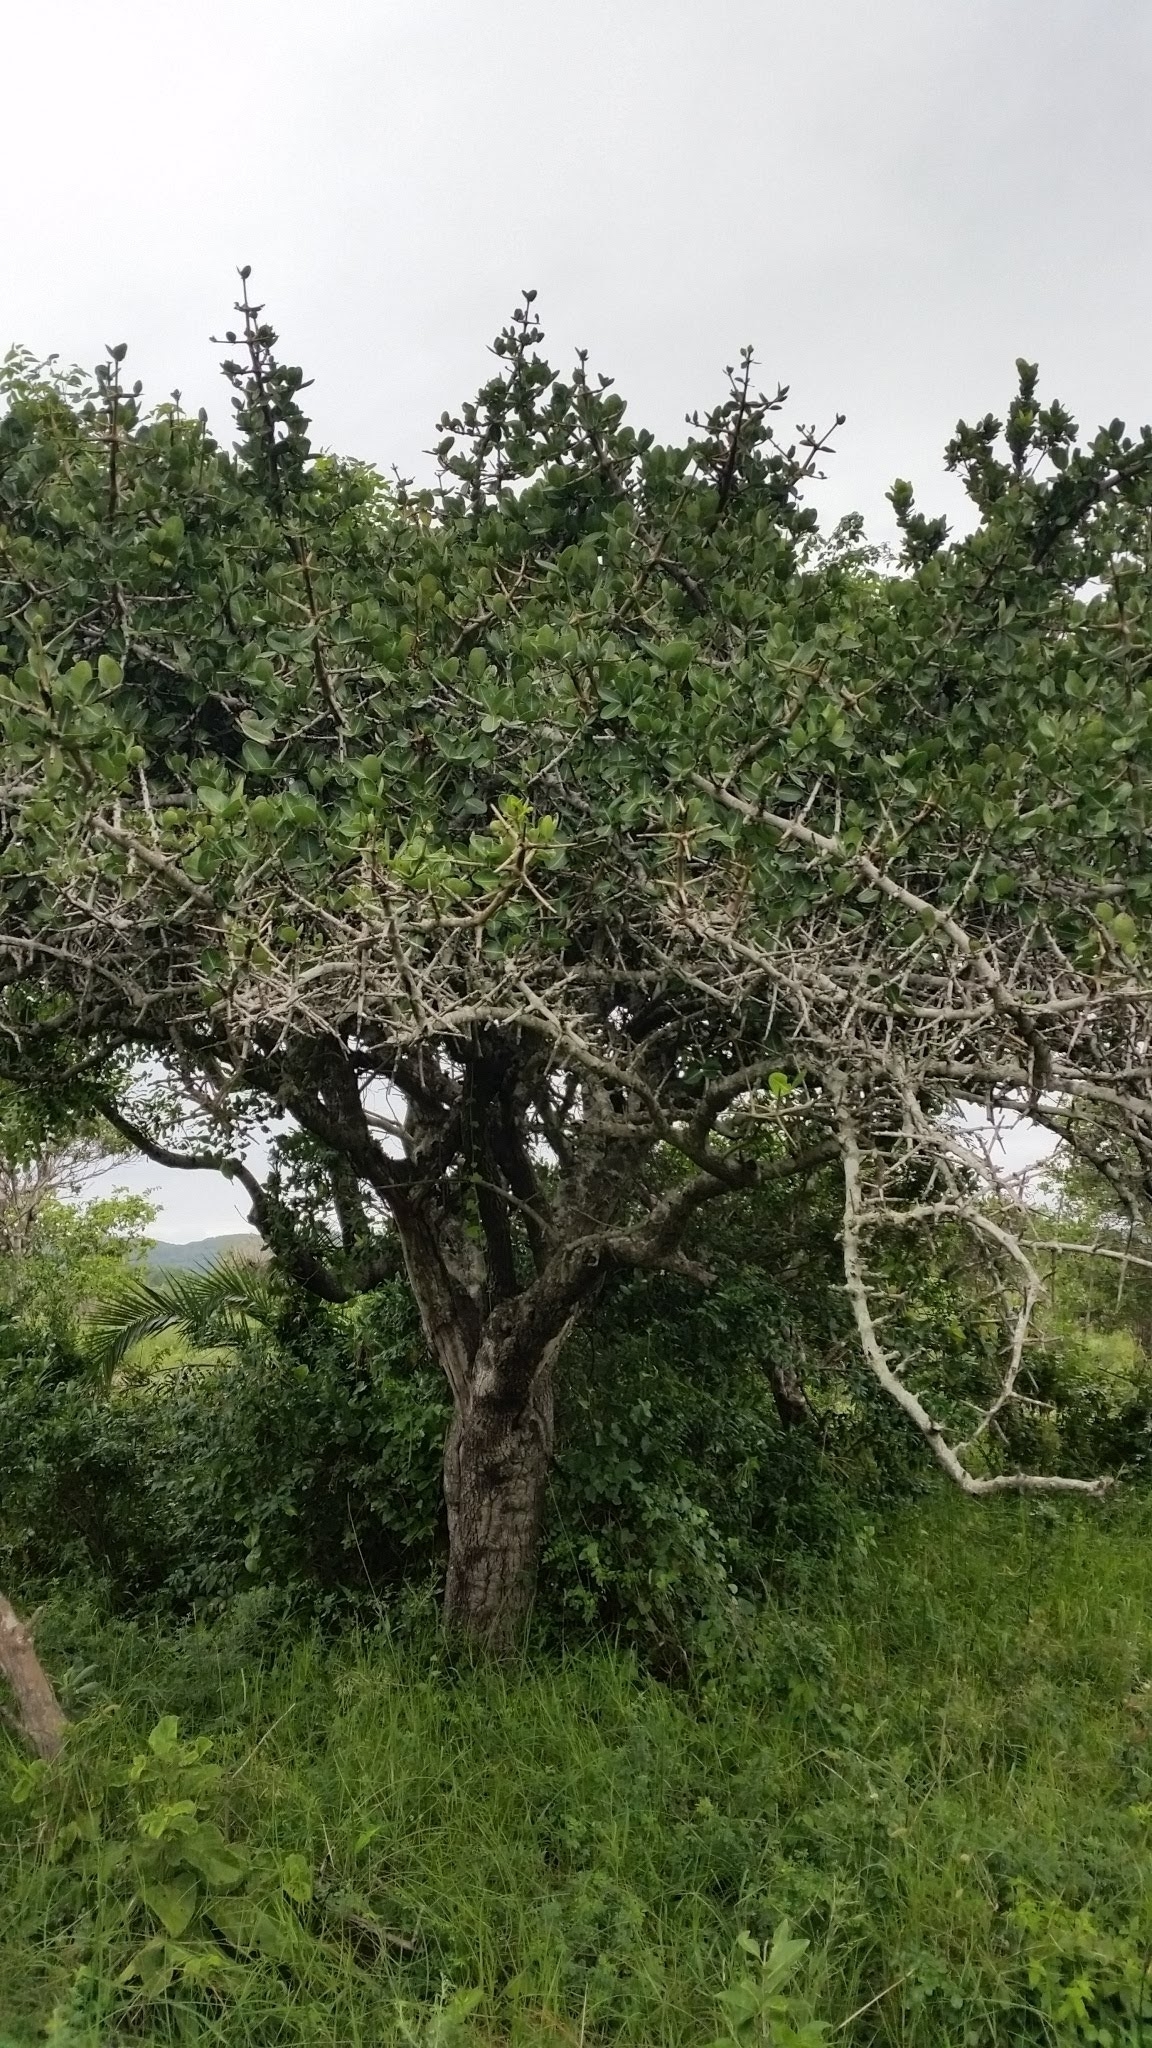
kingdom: Plantae
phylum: Tracheophyta
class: Magnoliopsida
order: Malpighiales
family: Clusiaceae
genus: Garcinia
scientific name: Garcinia livingstonei
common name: African mangosteen
